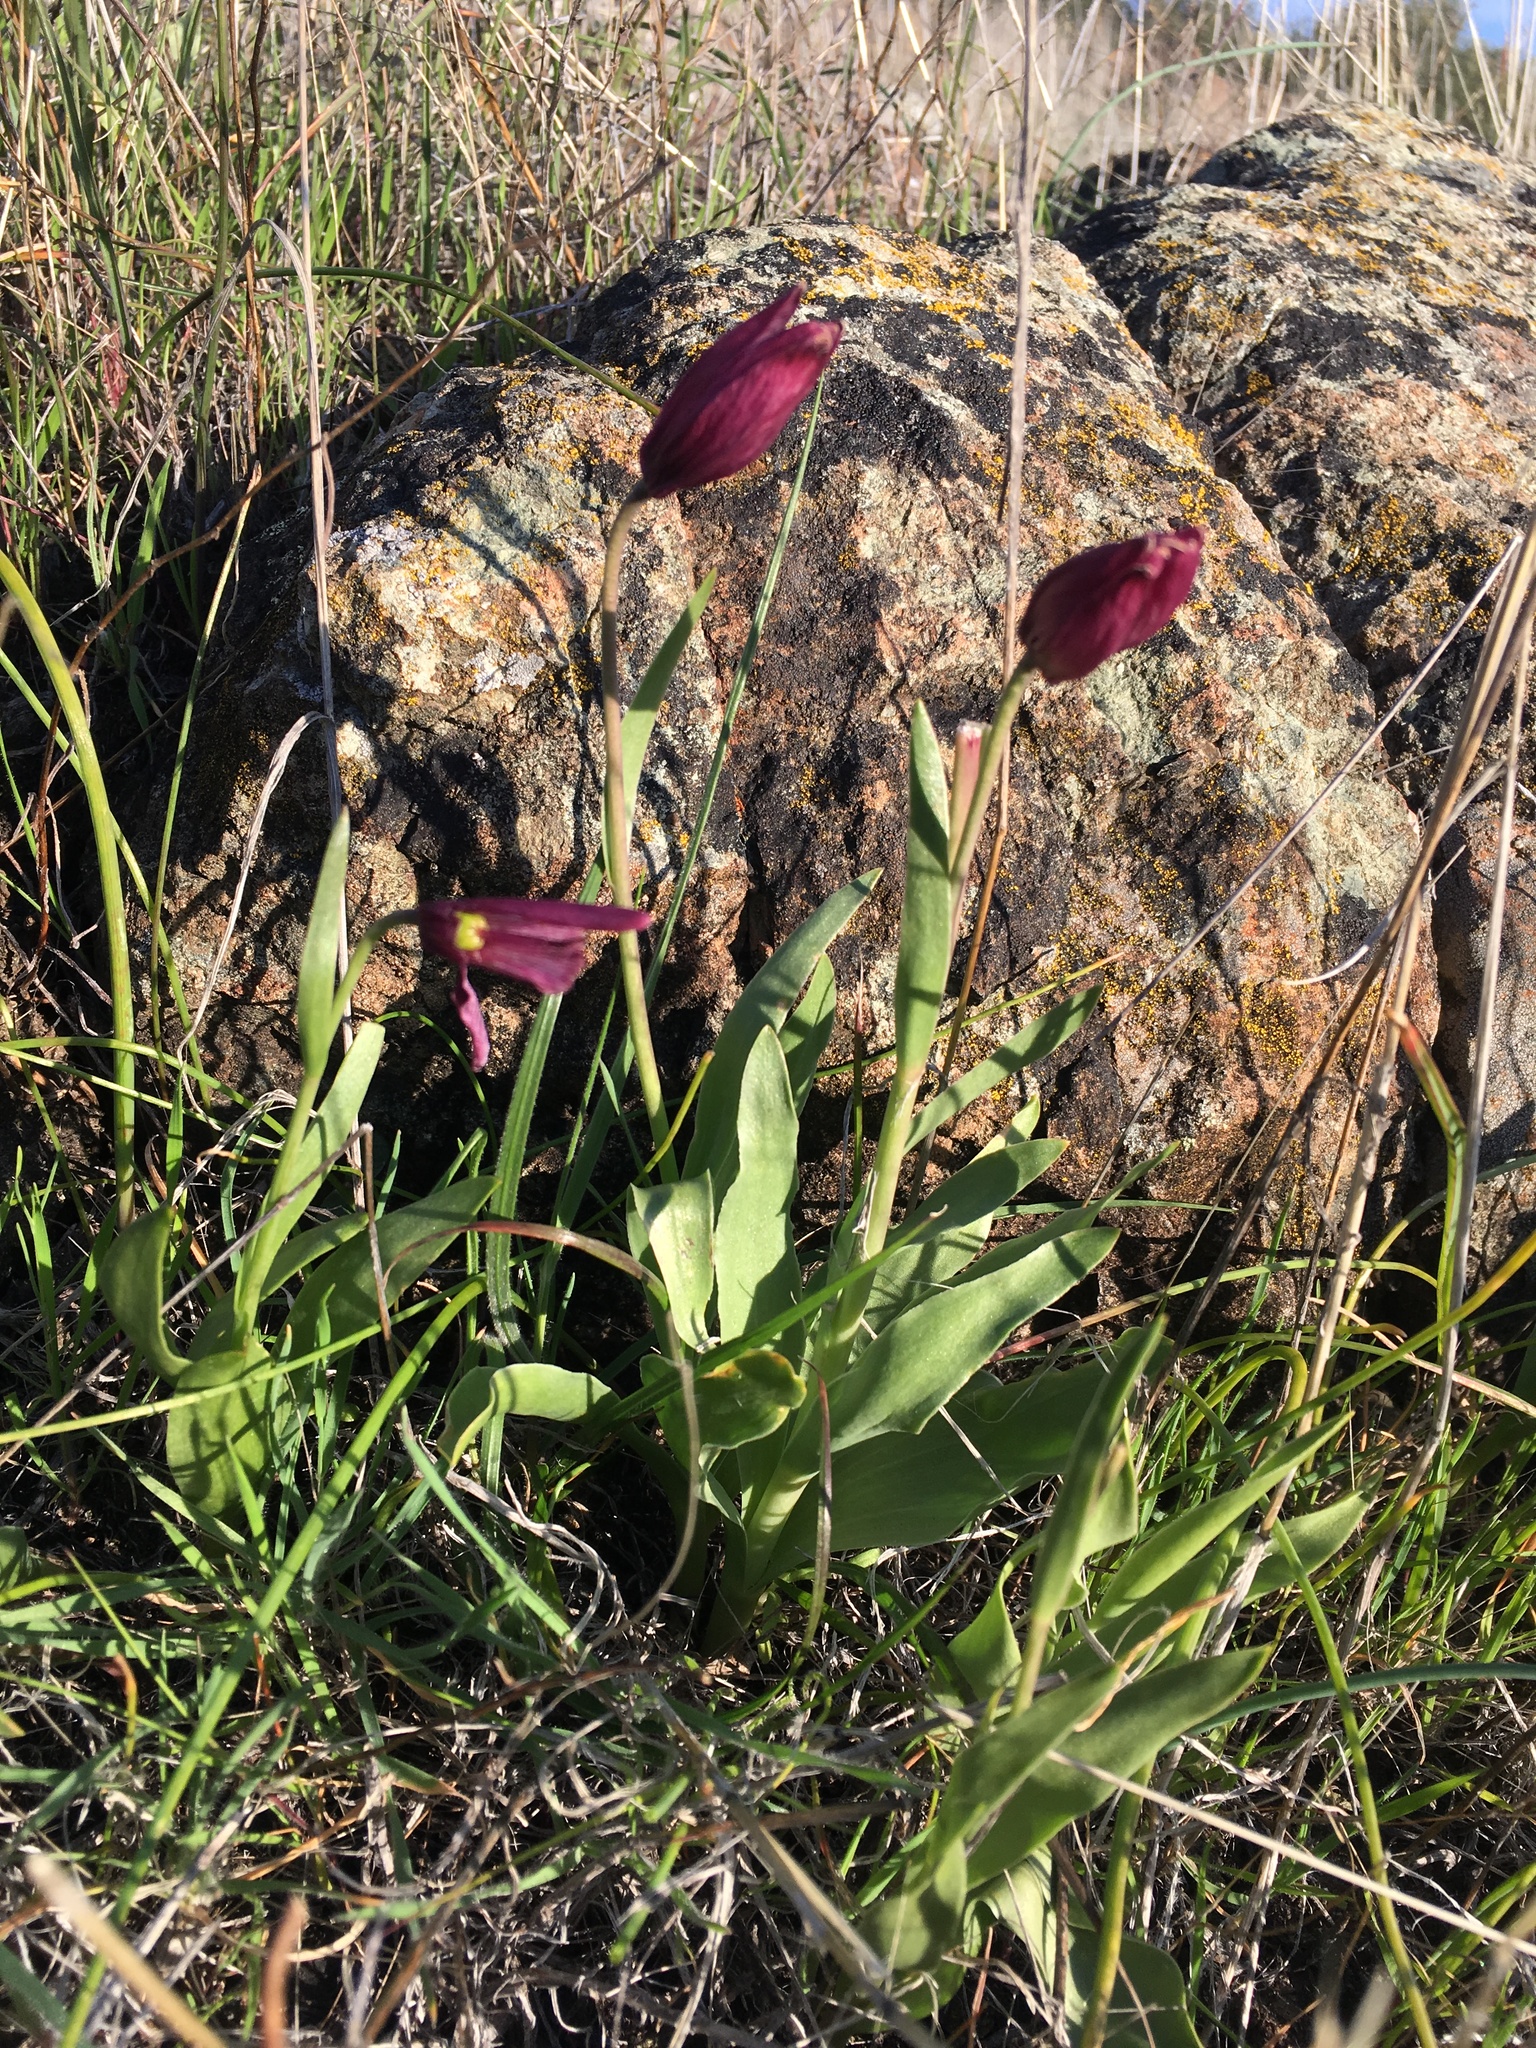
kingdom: Plantae
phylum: Tracheophyta
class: Liliopsida
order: Liliales
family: Liliaceae
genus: Fritillaria
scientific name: Fritillaria pluriflora
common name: Adobe-lily
